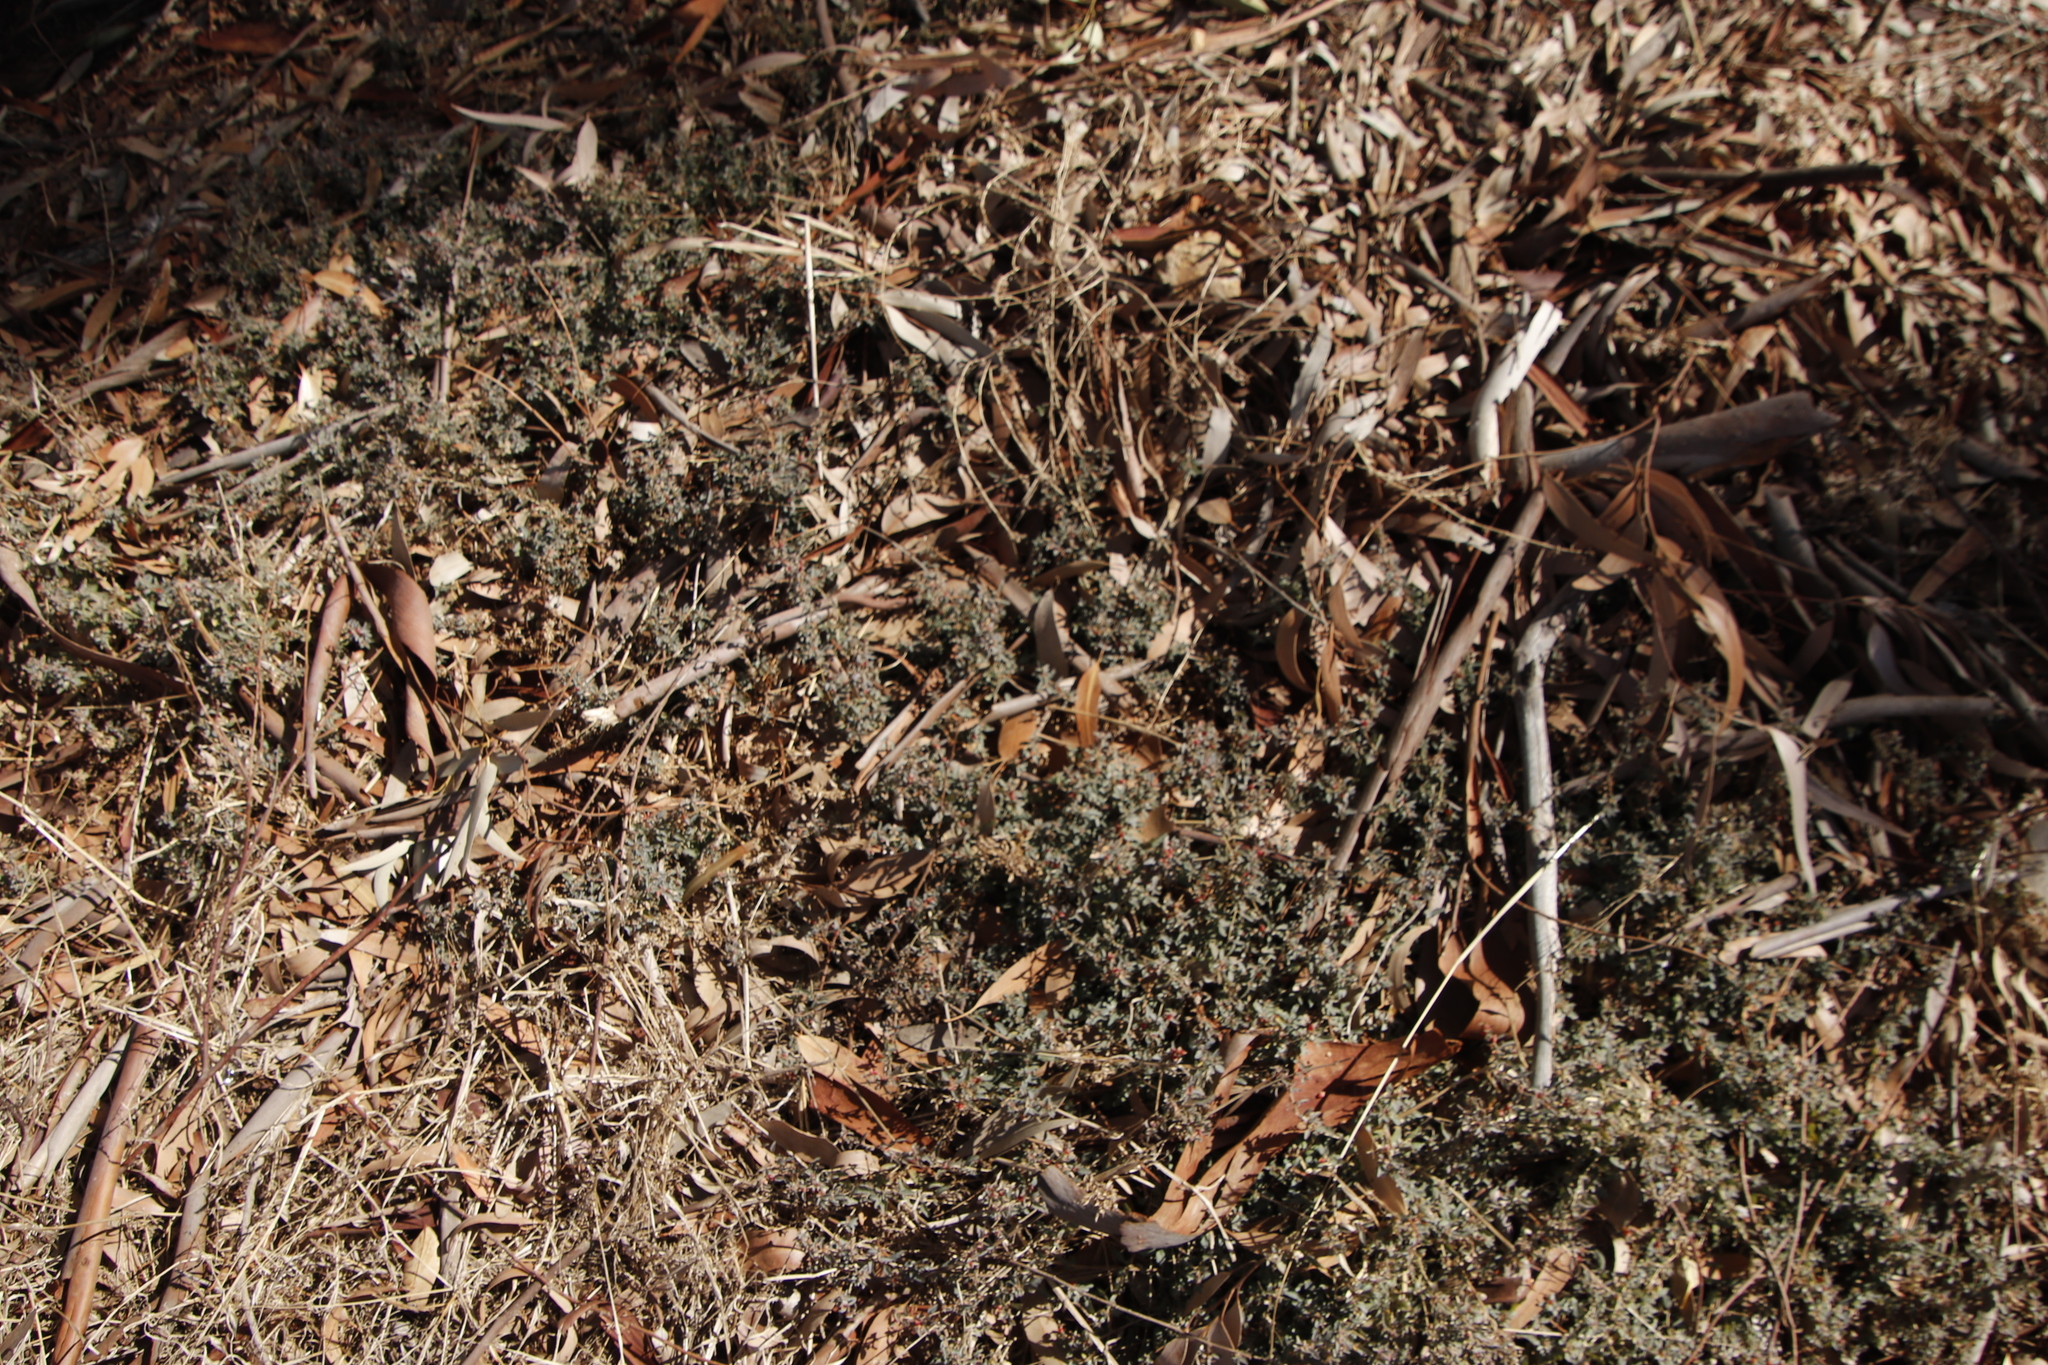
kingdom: Plantae
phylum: Tracheophyta
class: Magnoliopsida
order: Caryophyllales
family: Amaranthaceae
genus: Atriplex
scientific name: Atriplex semibaccata
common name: Australian saltbush
